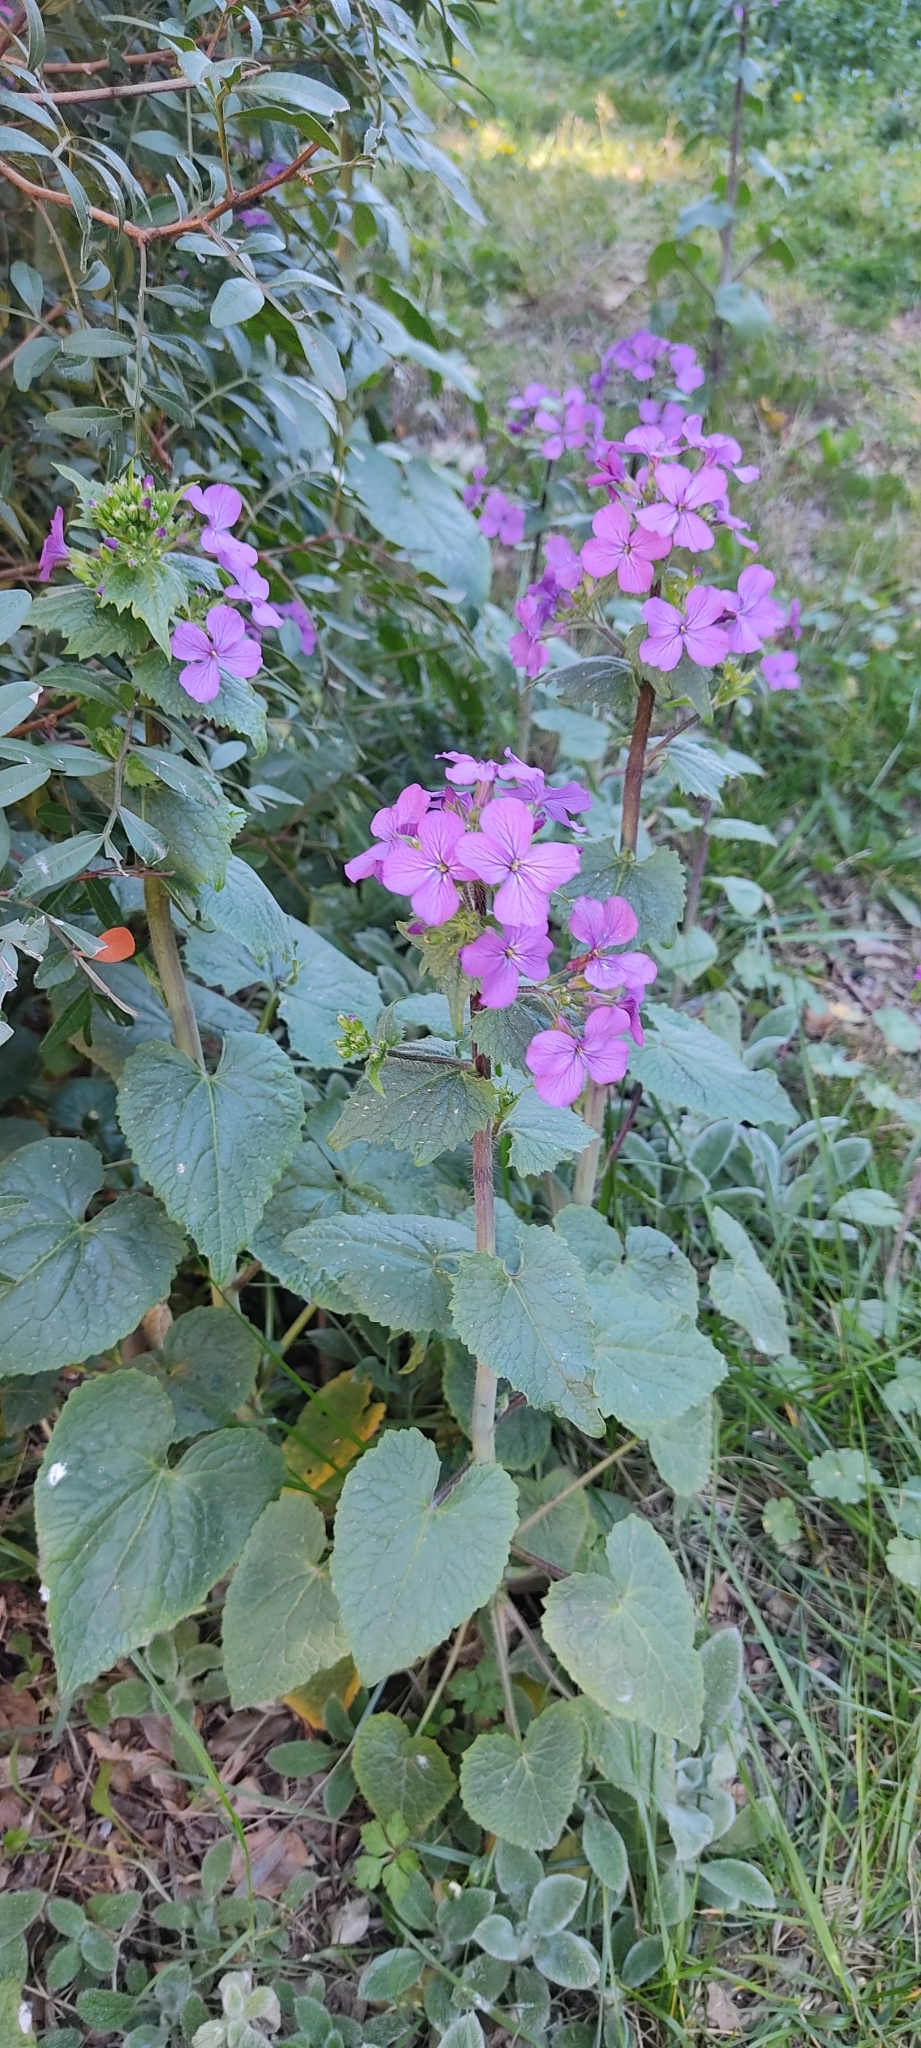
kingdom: Plantae
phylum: Tracheophyta
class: Magnoliopsida
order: Brassicales
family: Brassicaceae
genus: Lunaria
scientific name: Lunaria annua
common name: Honesty
